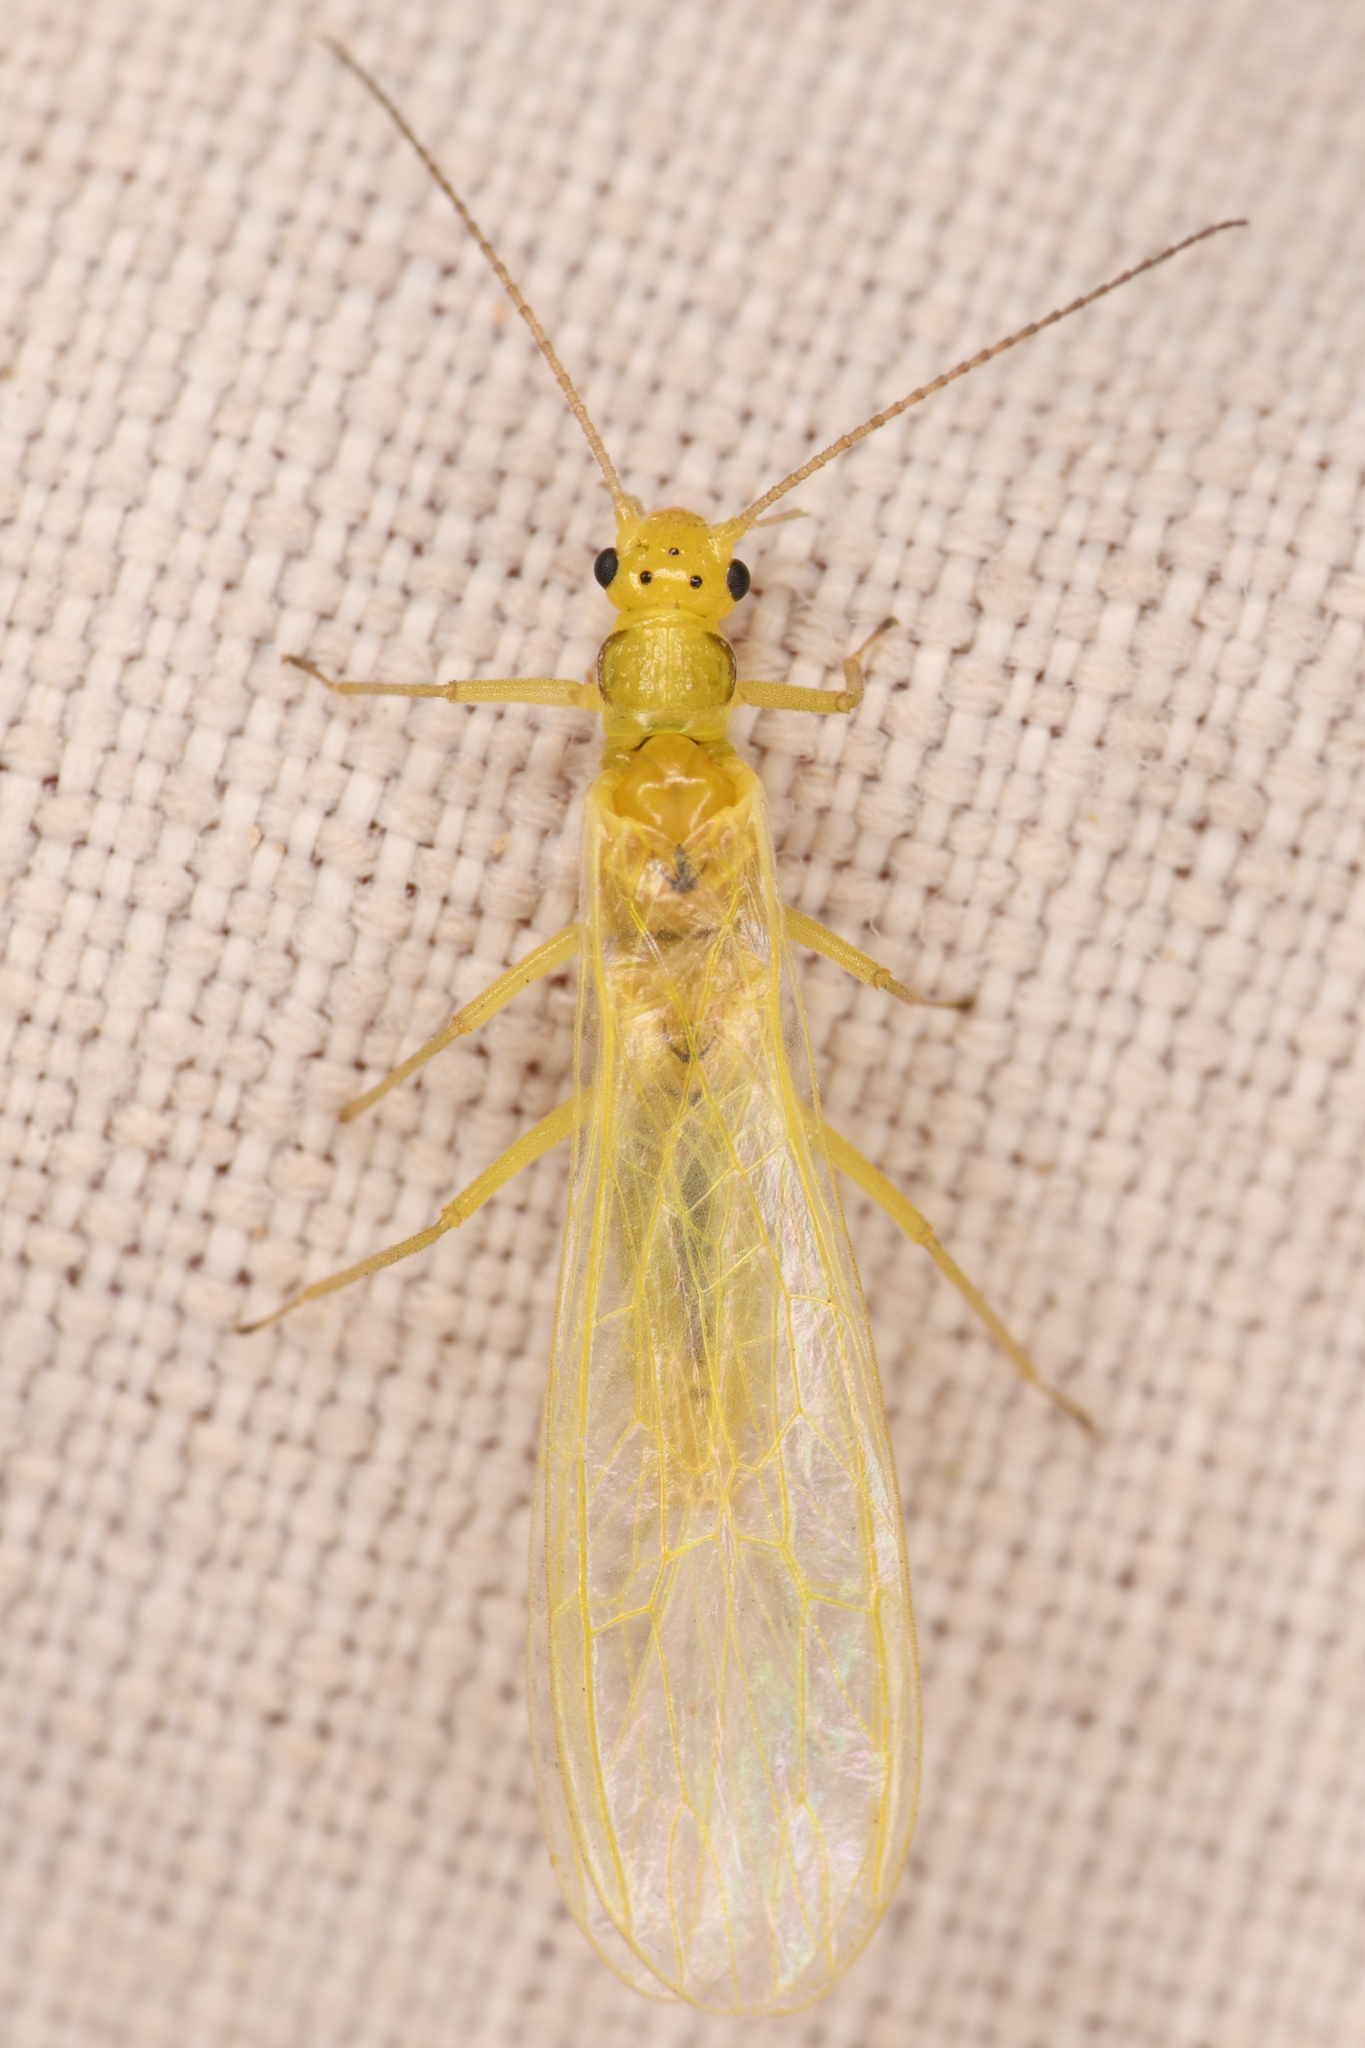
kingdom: Animalia
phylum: Arthropoda
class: Insecta
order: Plecoptera
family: Chloroperlidae
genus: Plumiperla
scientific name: Plumiperla diversa
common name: Margined sallfly
